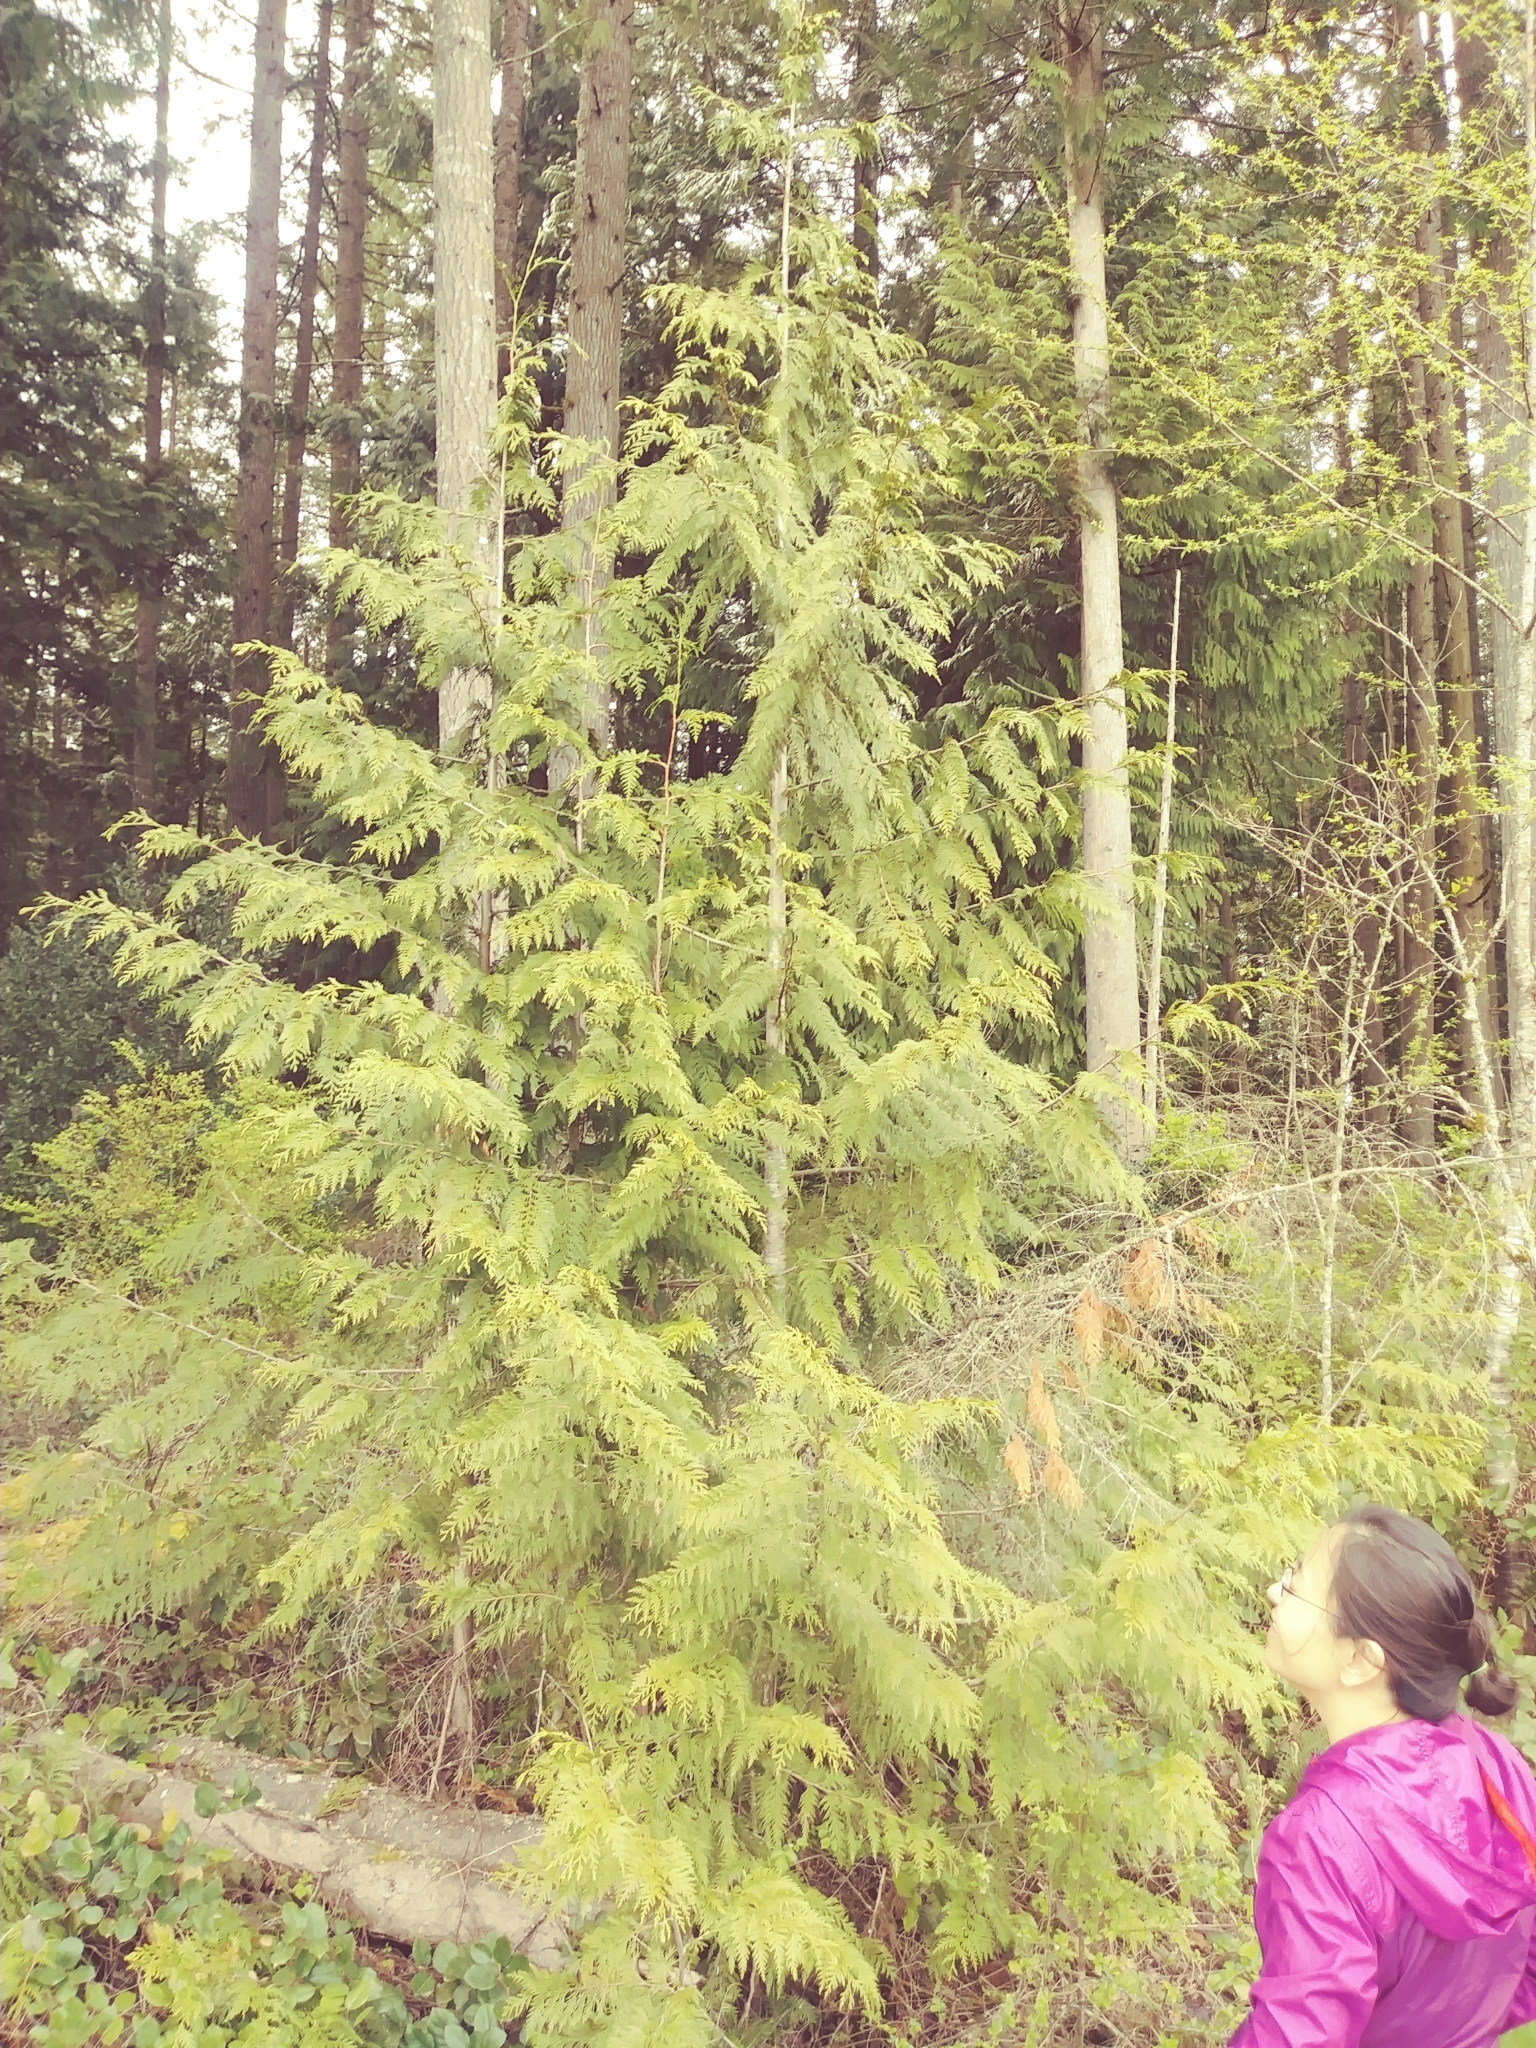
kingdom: Plantae
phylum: Tracheophyta
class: Pinopsida
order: Pinales
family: Cupressaceae
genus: Thuja
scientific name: Thuja plicata
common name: Western red-cedar
